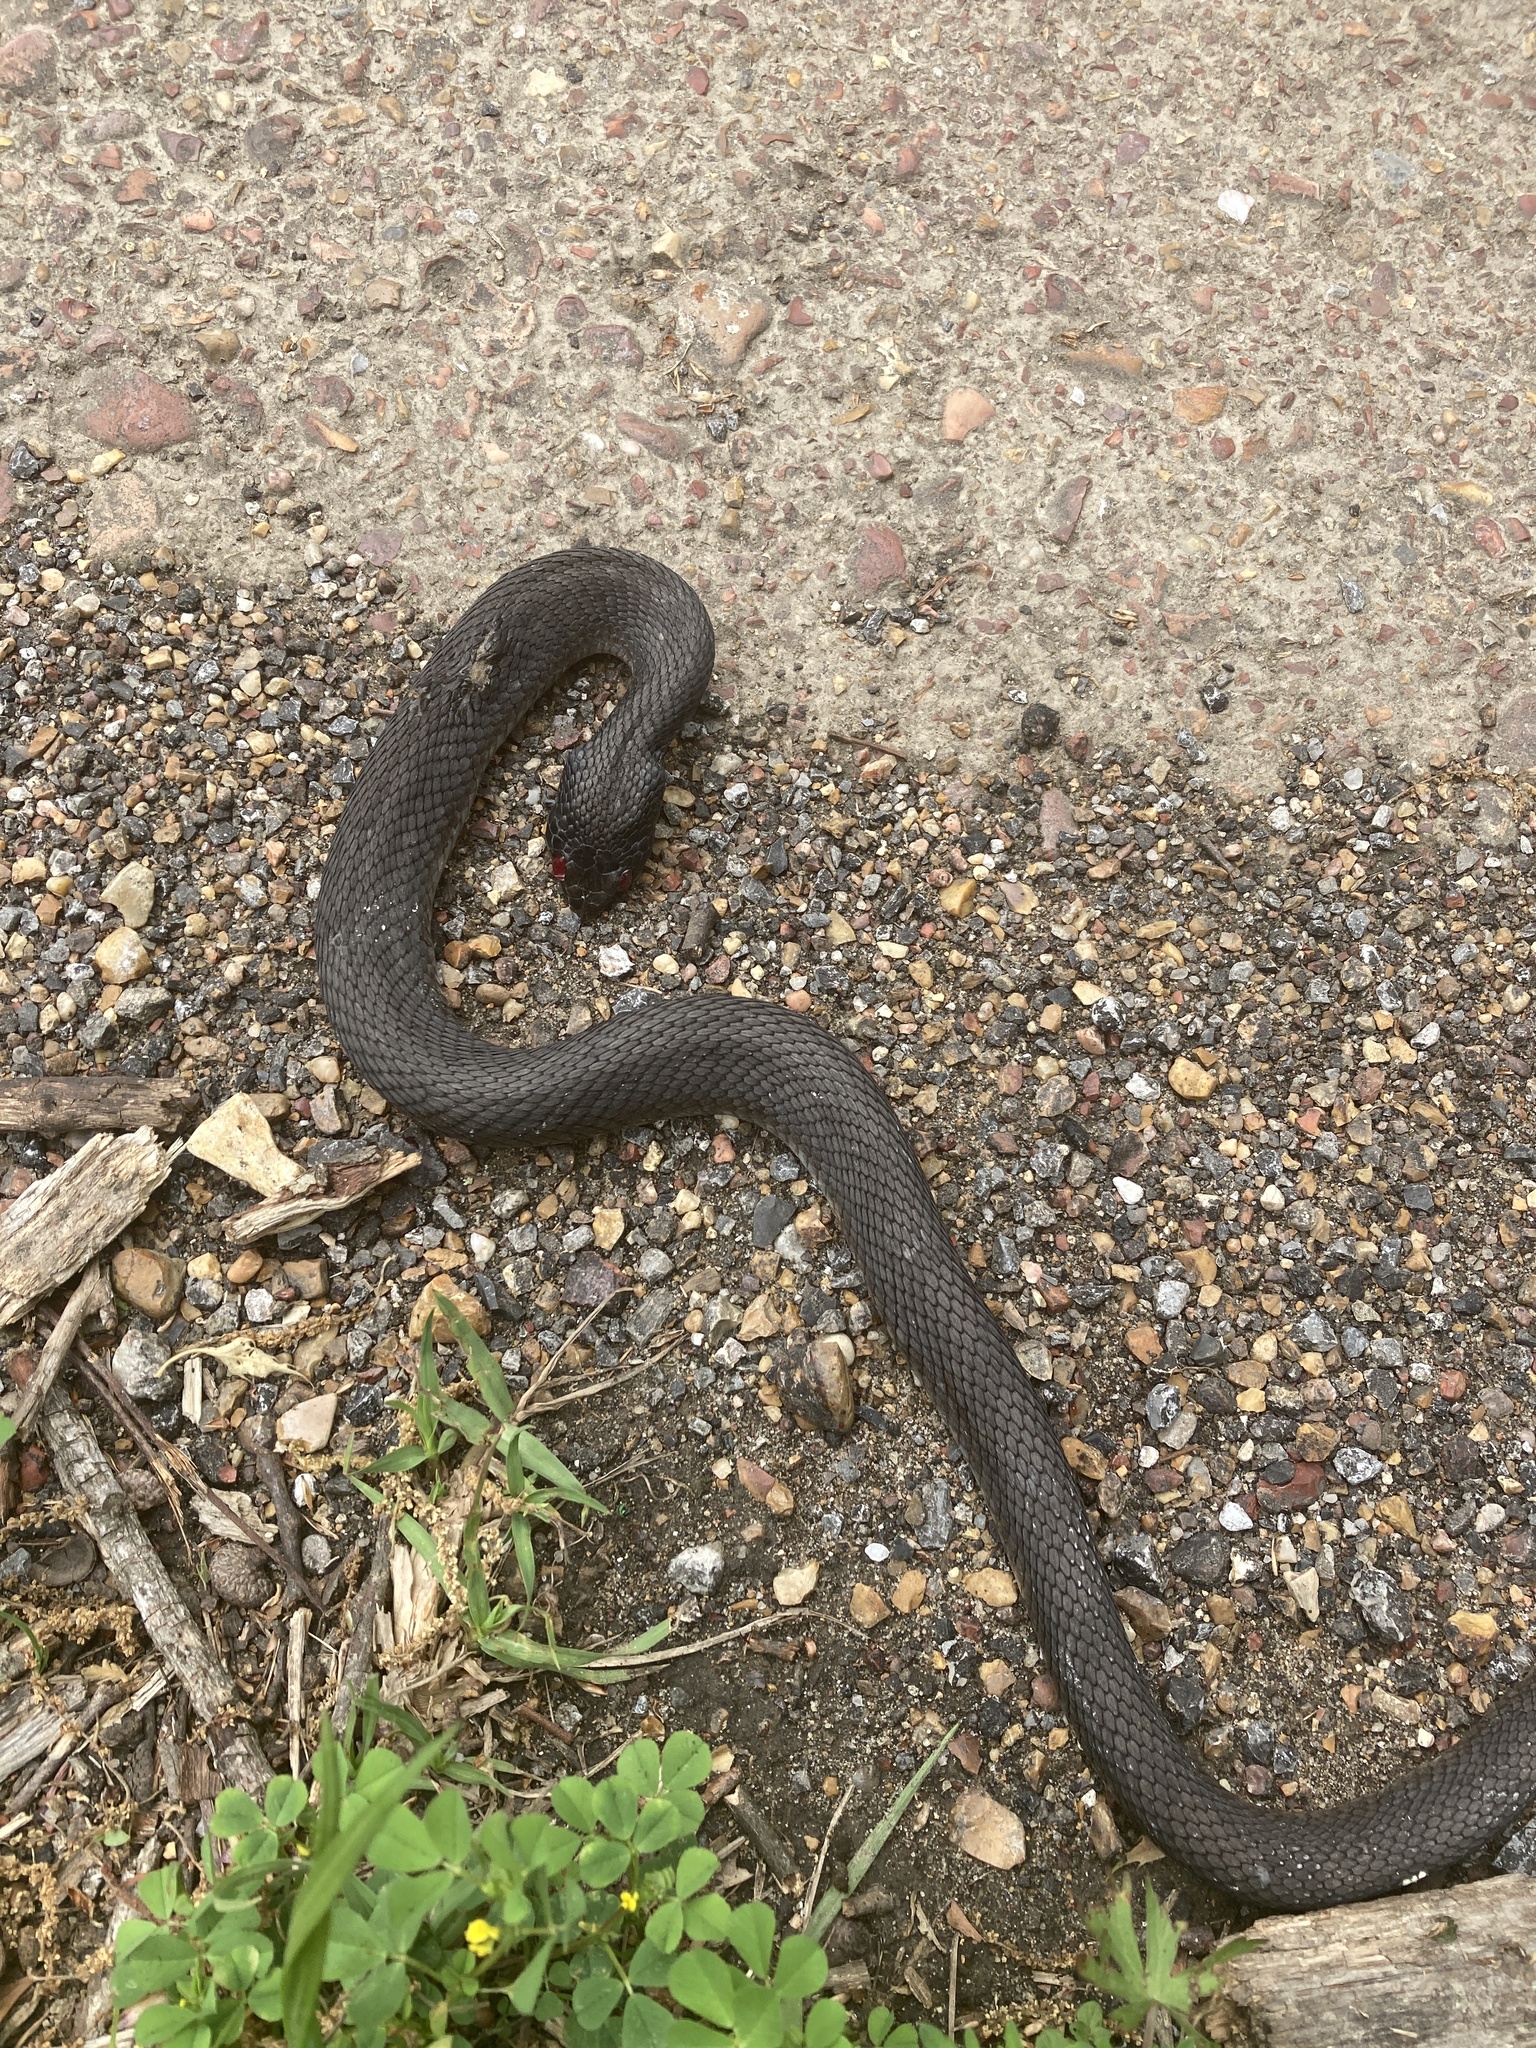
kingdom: Animalia
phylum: Chordata
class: Squamata
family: Colubridae
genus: Nerodia
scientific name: Nerodia erythrogaster
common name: Plainbelly water snake
